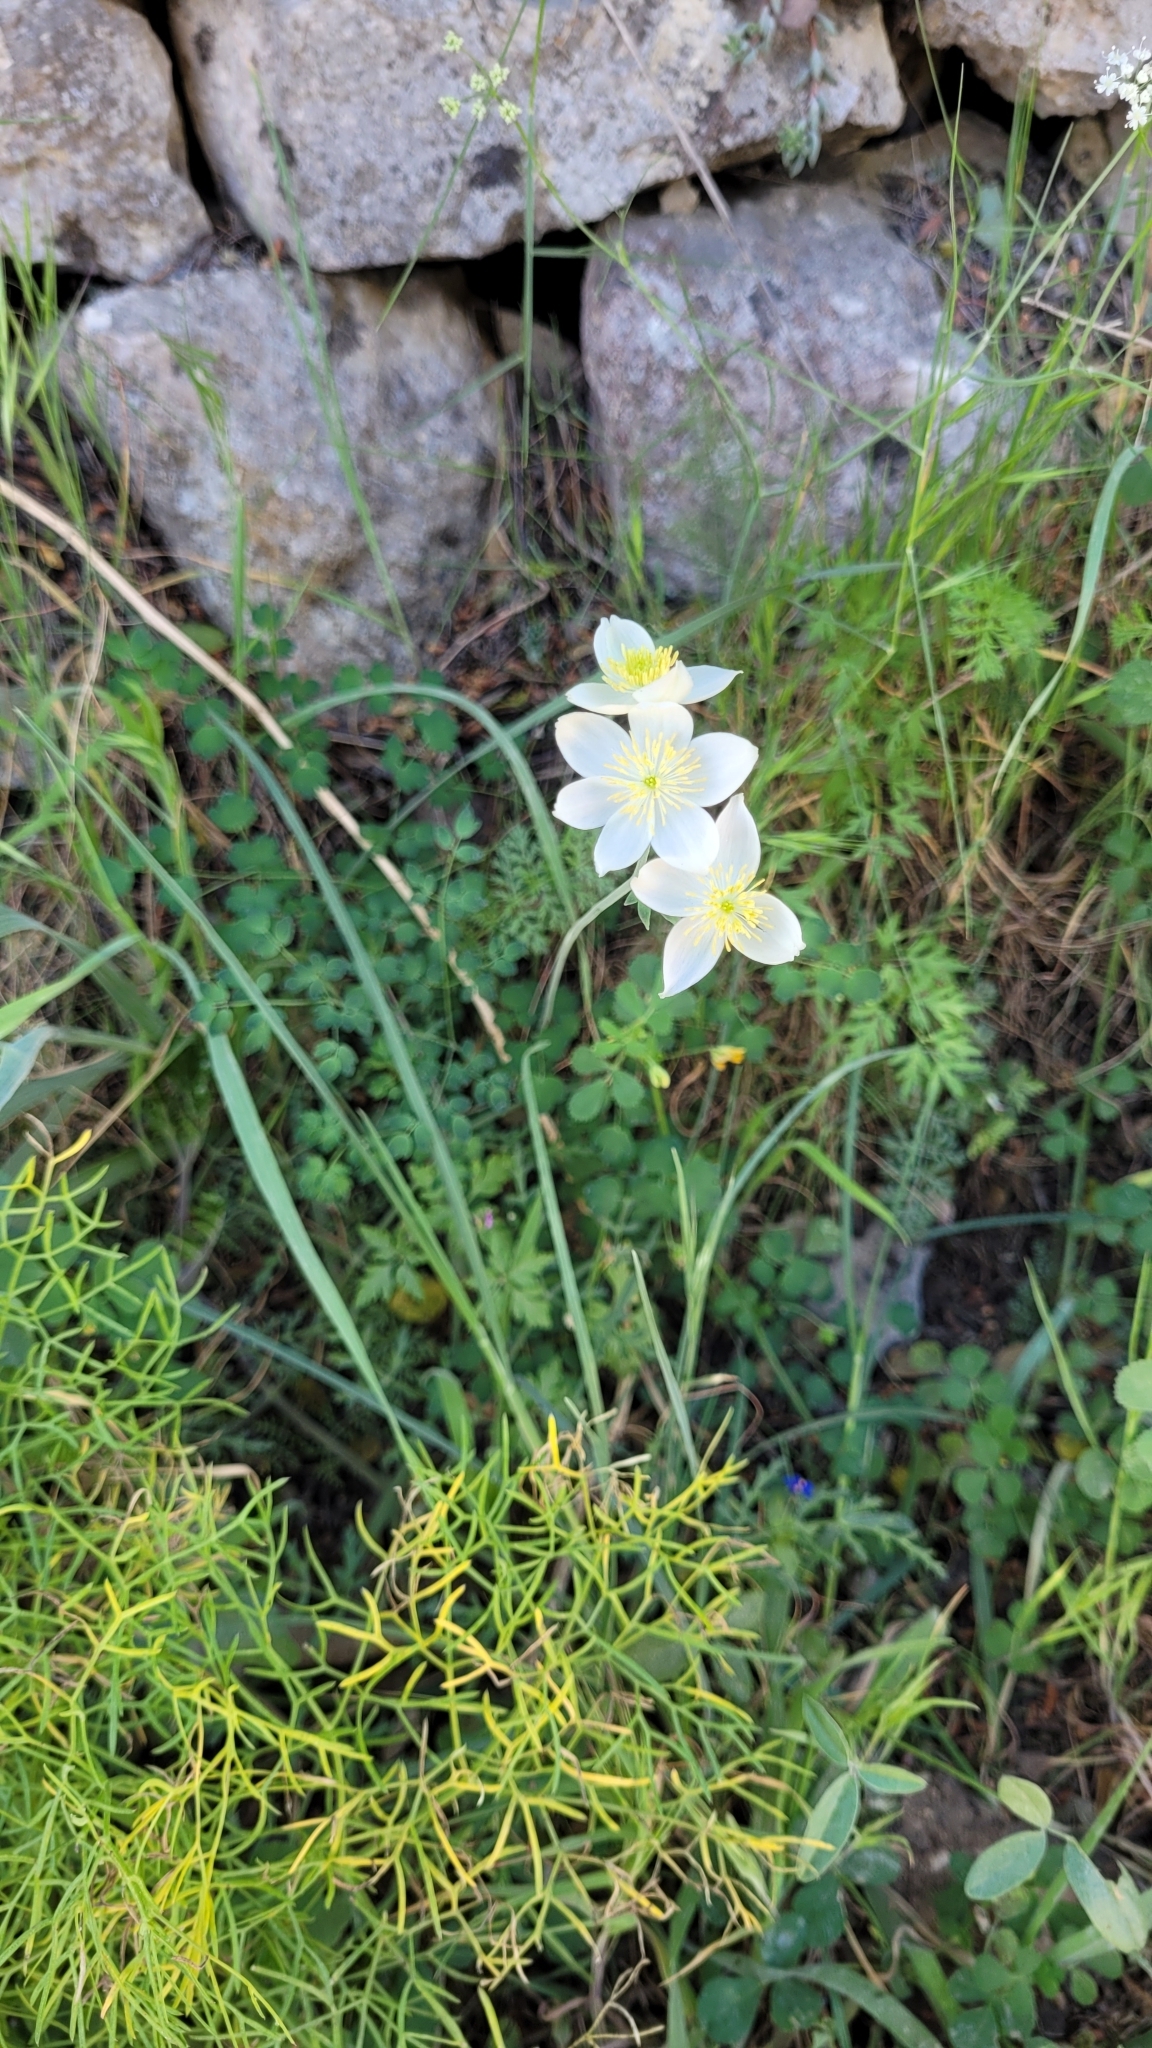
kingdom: Plantae
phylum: Tracheophyta
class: Magnoliopsida
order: Ranunculales
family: Ranunculaceae
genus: Thalictrum
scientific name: Thalictrum tuberosum
